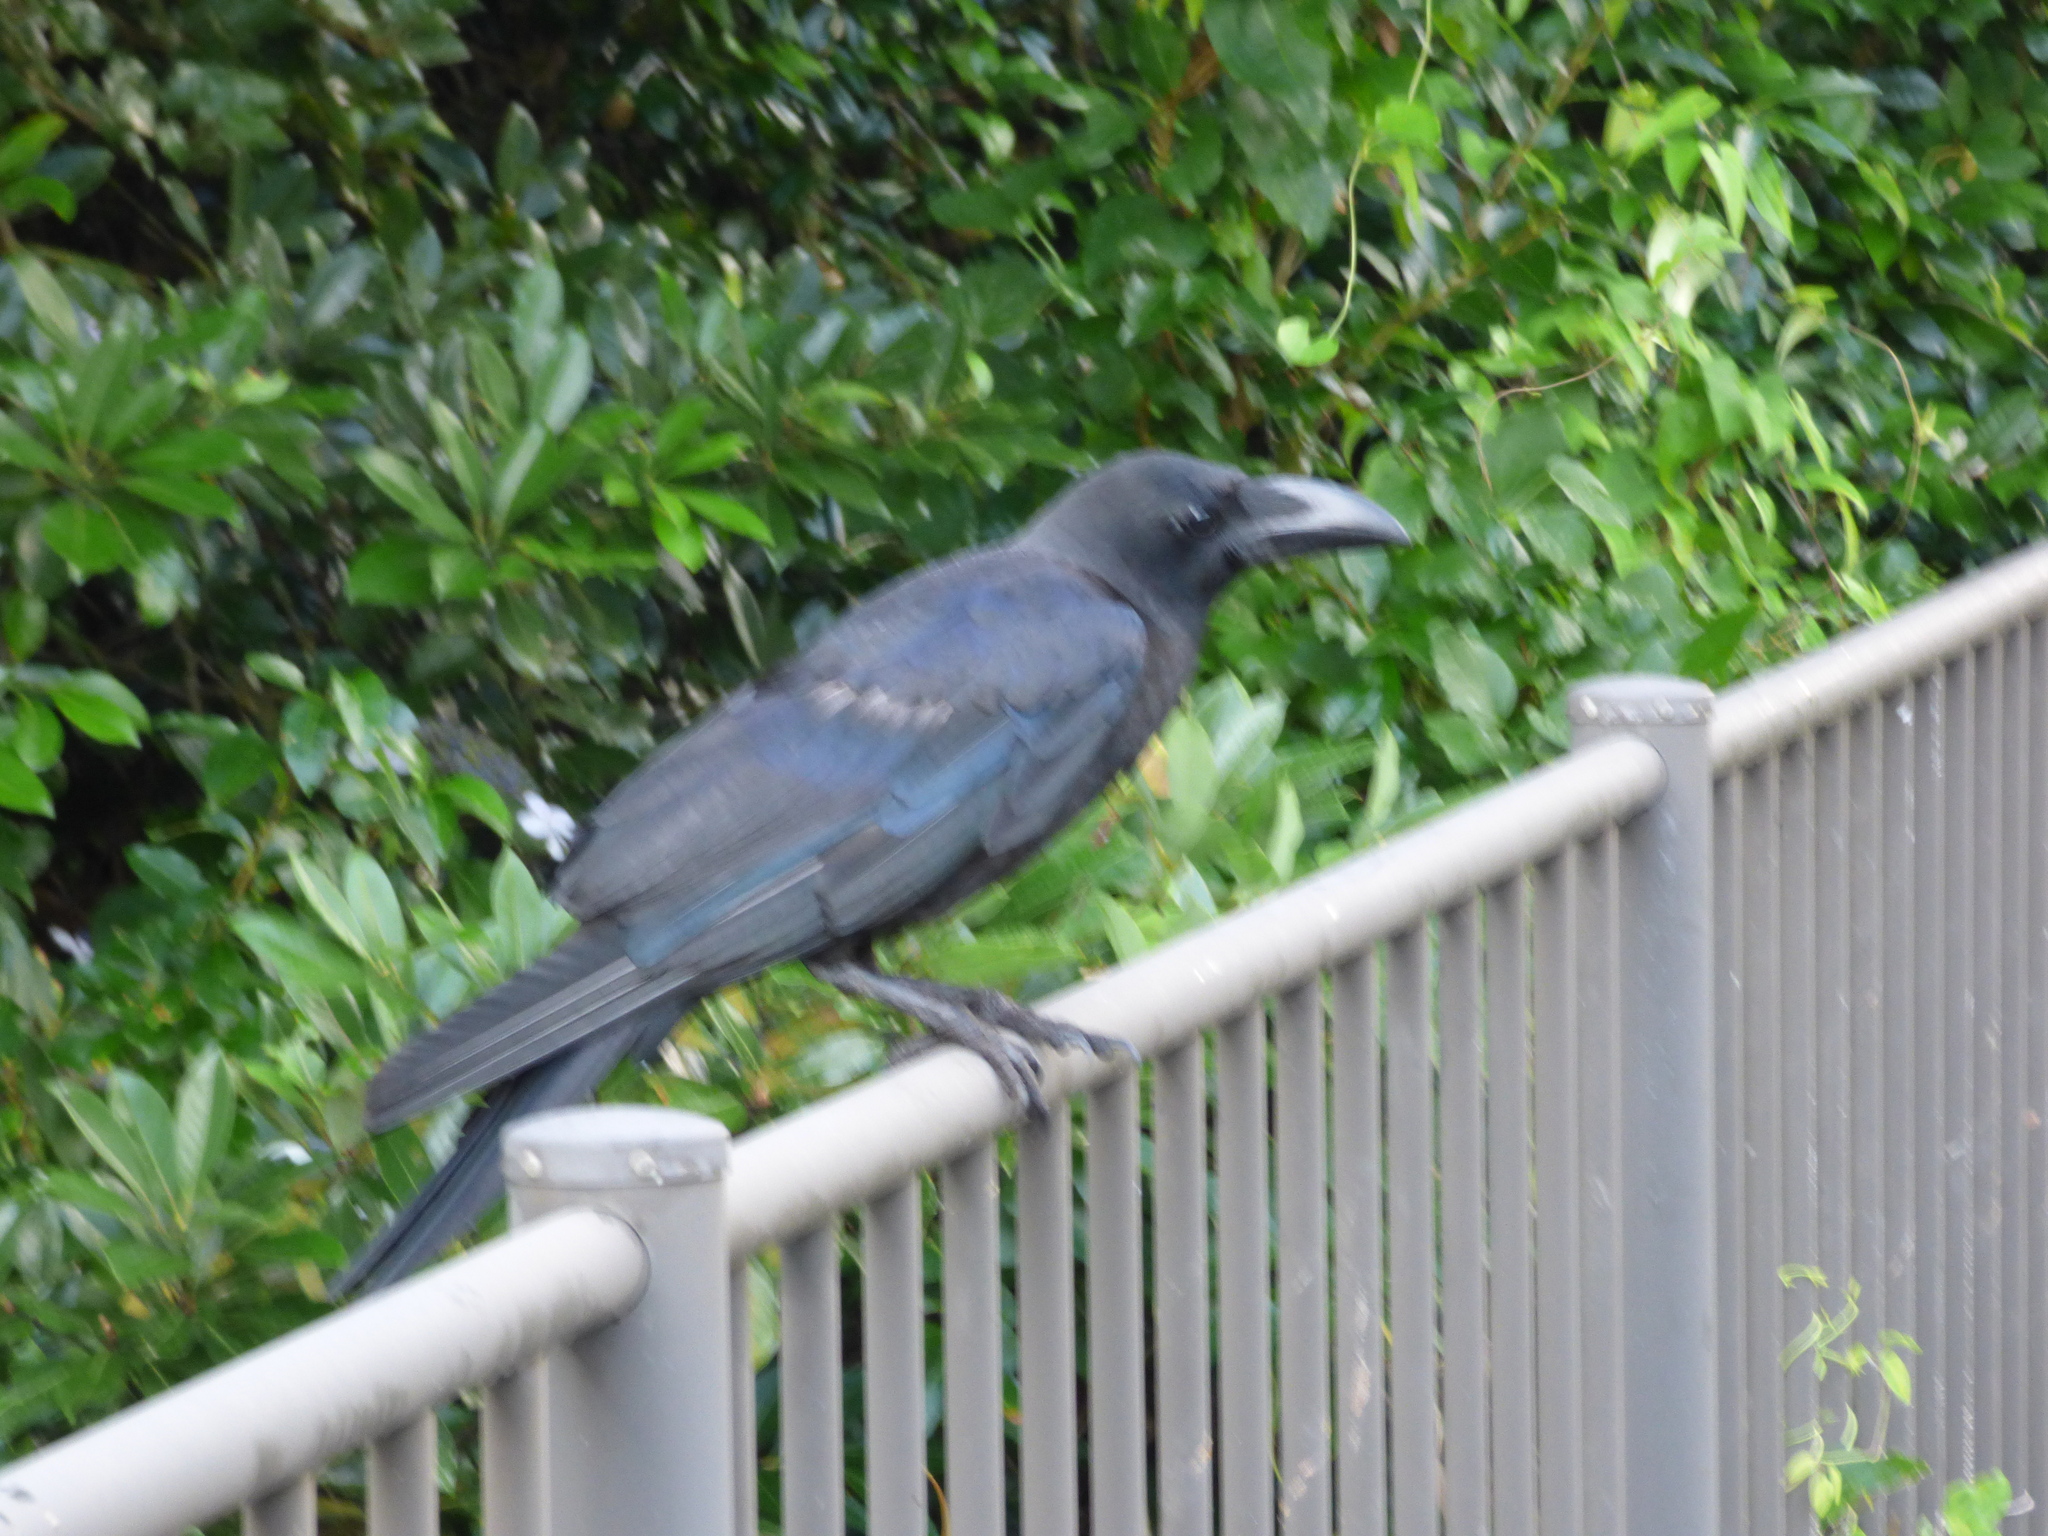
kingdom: Animalia
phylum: Chordata
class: Aves
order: Passeriformes
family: Corvidae
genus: Corvus
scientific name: Corvus macrorhynchos
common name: Large-billed crow
